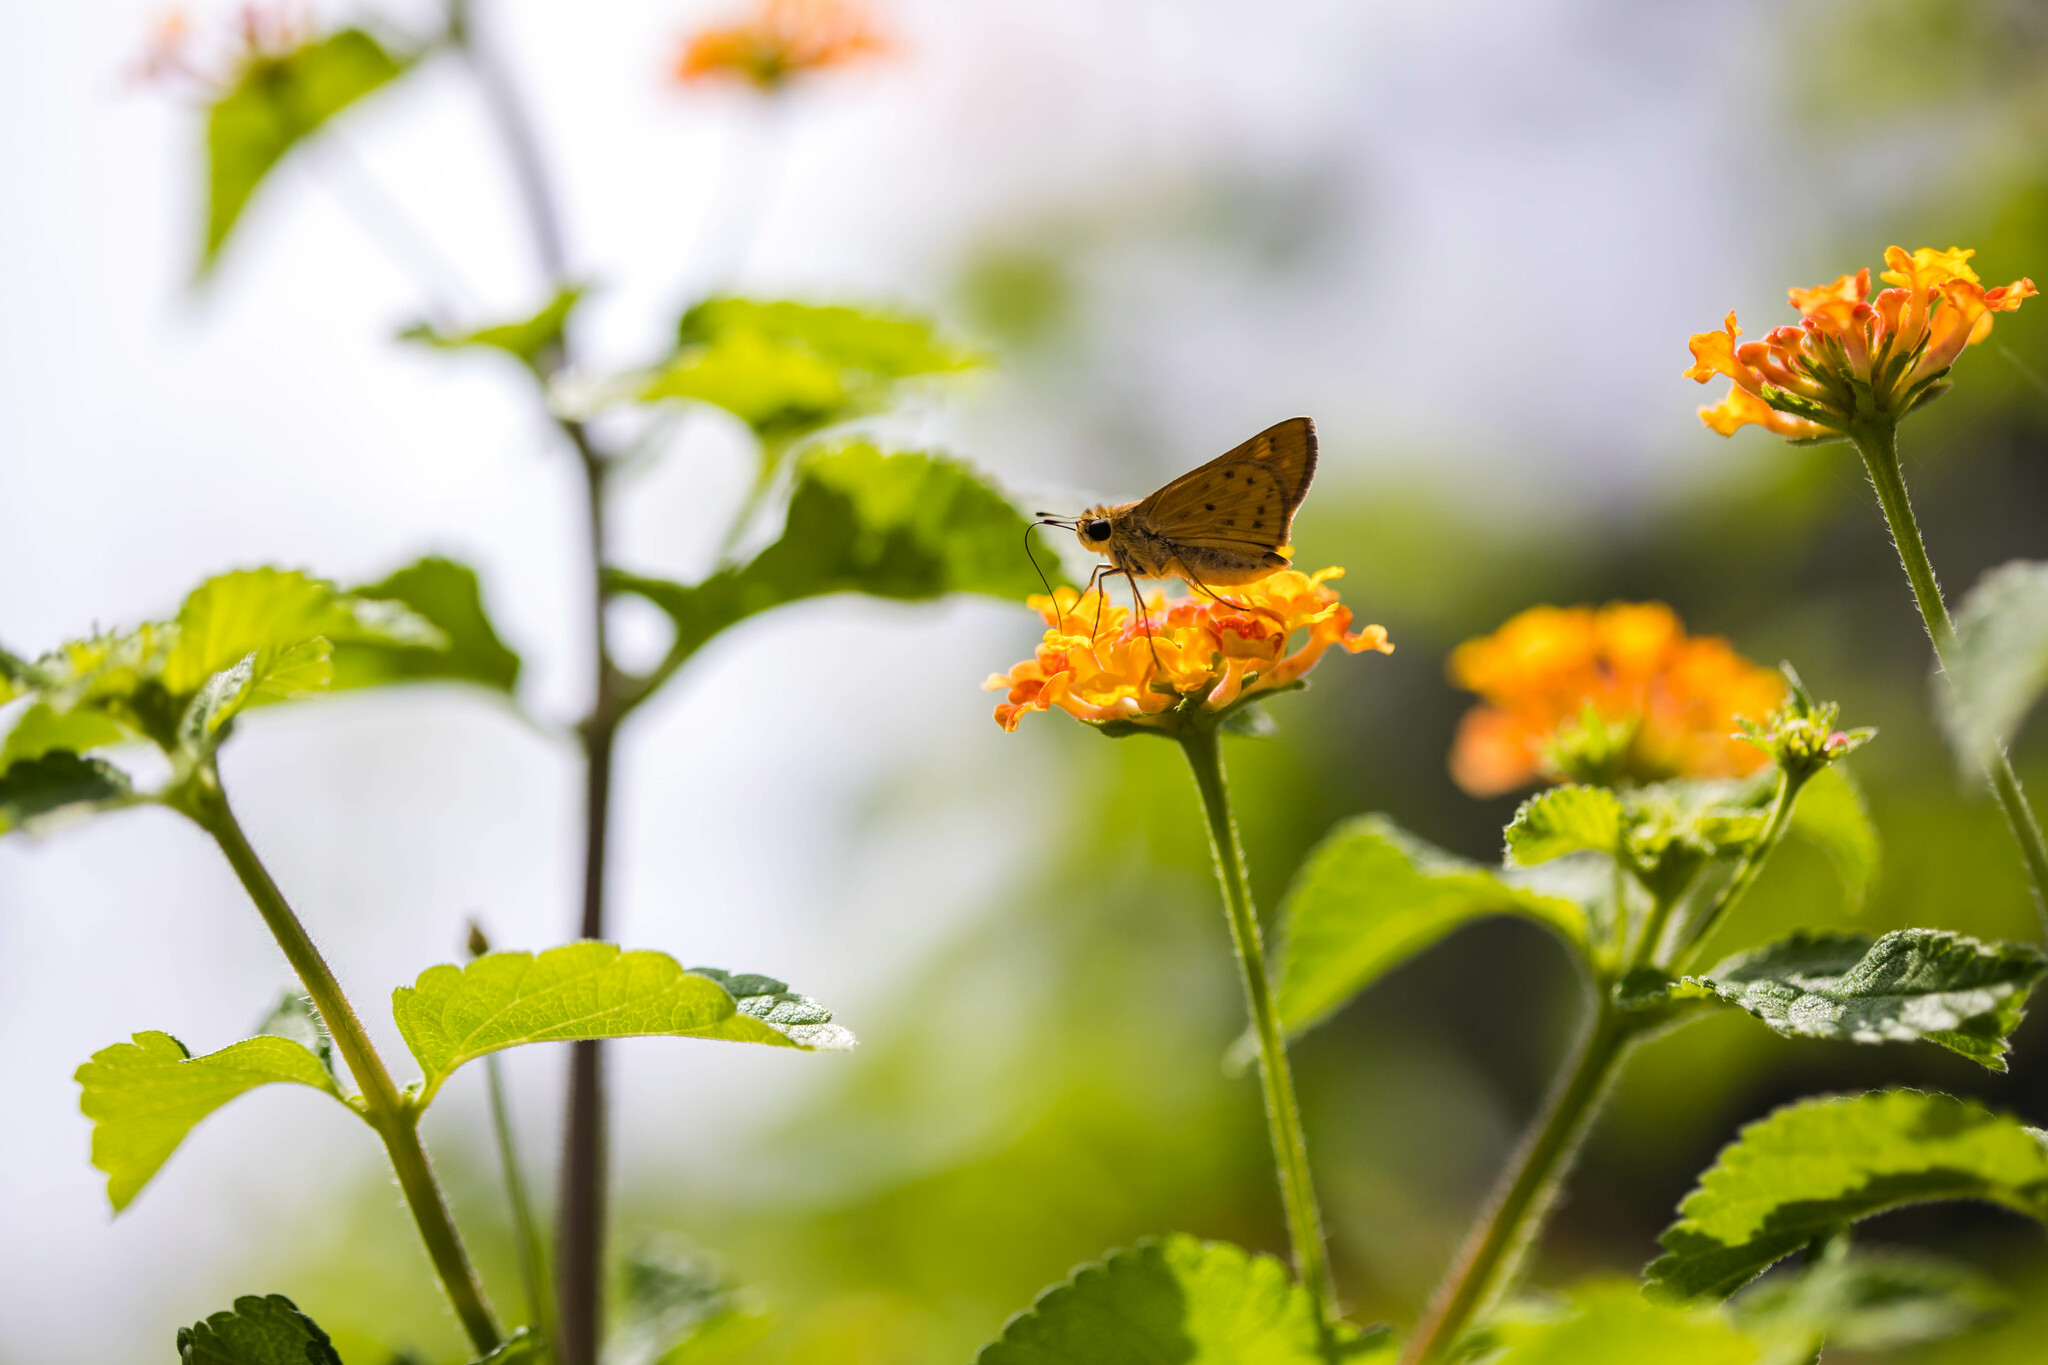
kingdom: Animalia
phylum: Arthropoda
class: Insecta
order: Lepidoptera
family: Hesperiidae
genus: Hylephila
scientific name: Hylephila phyleus
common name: Fiery skipper
